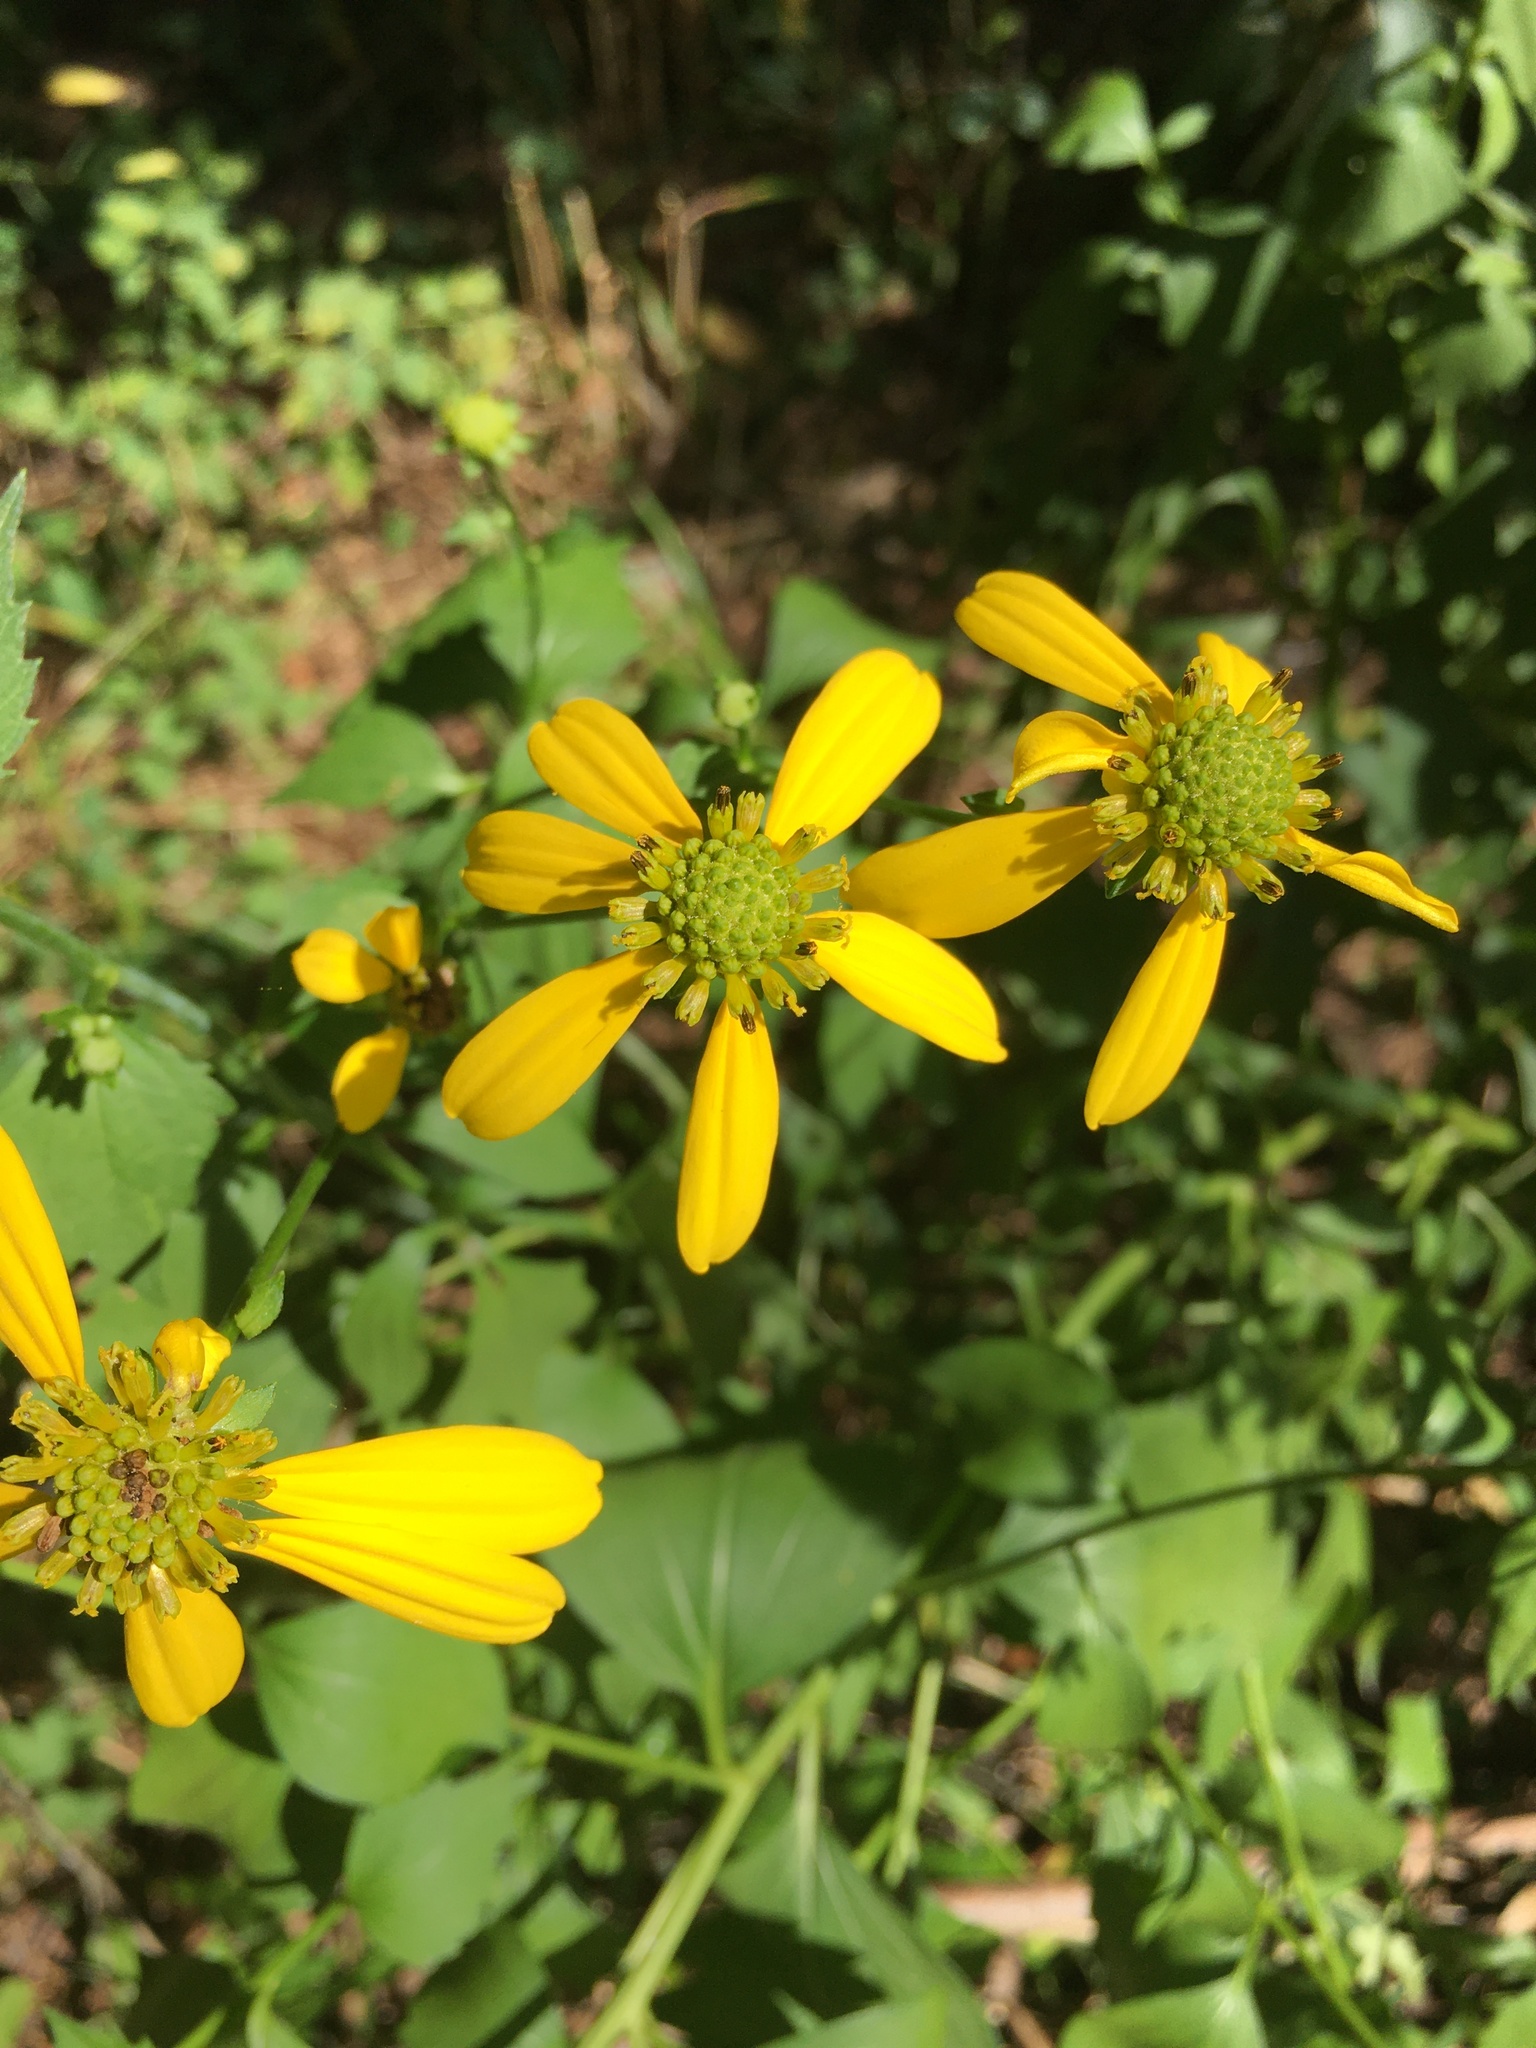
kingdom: Plantae
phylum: Tracheophyta
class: Magnoliopsida
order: Asterales
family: Asteraceae
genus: Rudbeckia
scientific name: Rudbeckia laciniata
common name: Coneflower
